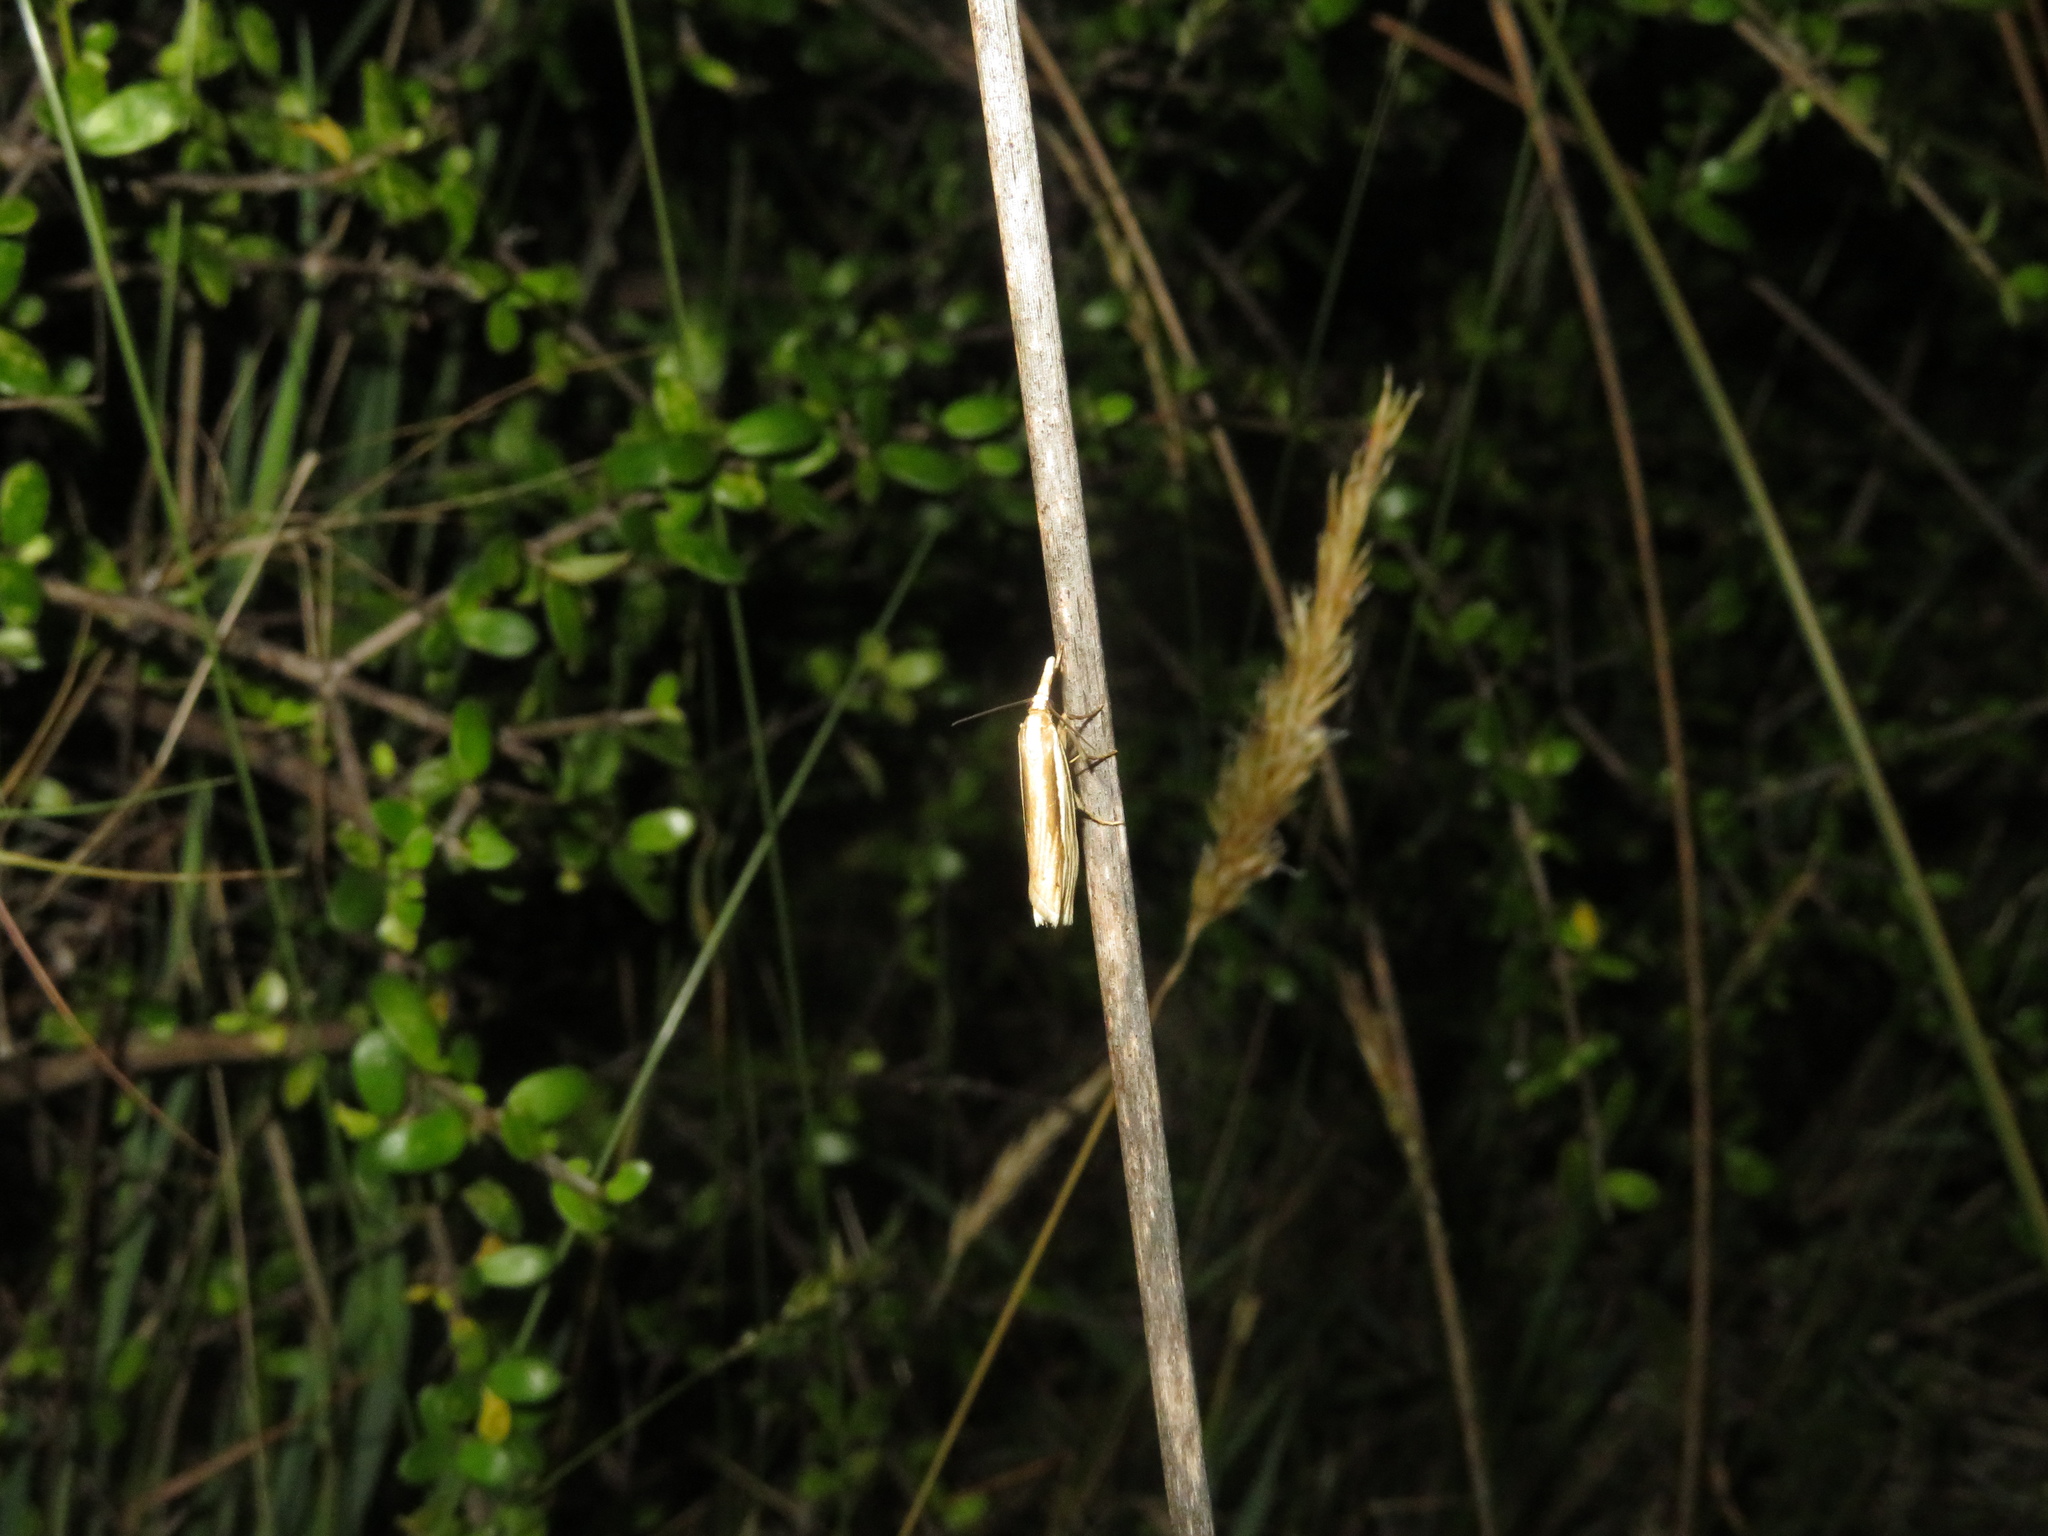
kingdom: Animalia
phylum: Arthropoda
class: Insecta
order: Lepidoptera
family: Crambidae
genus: Orocrambus
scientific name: Orocrambus ramosellus
